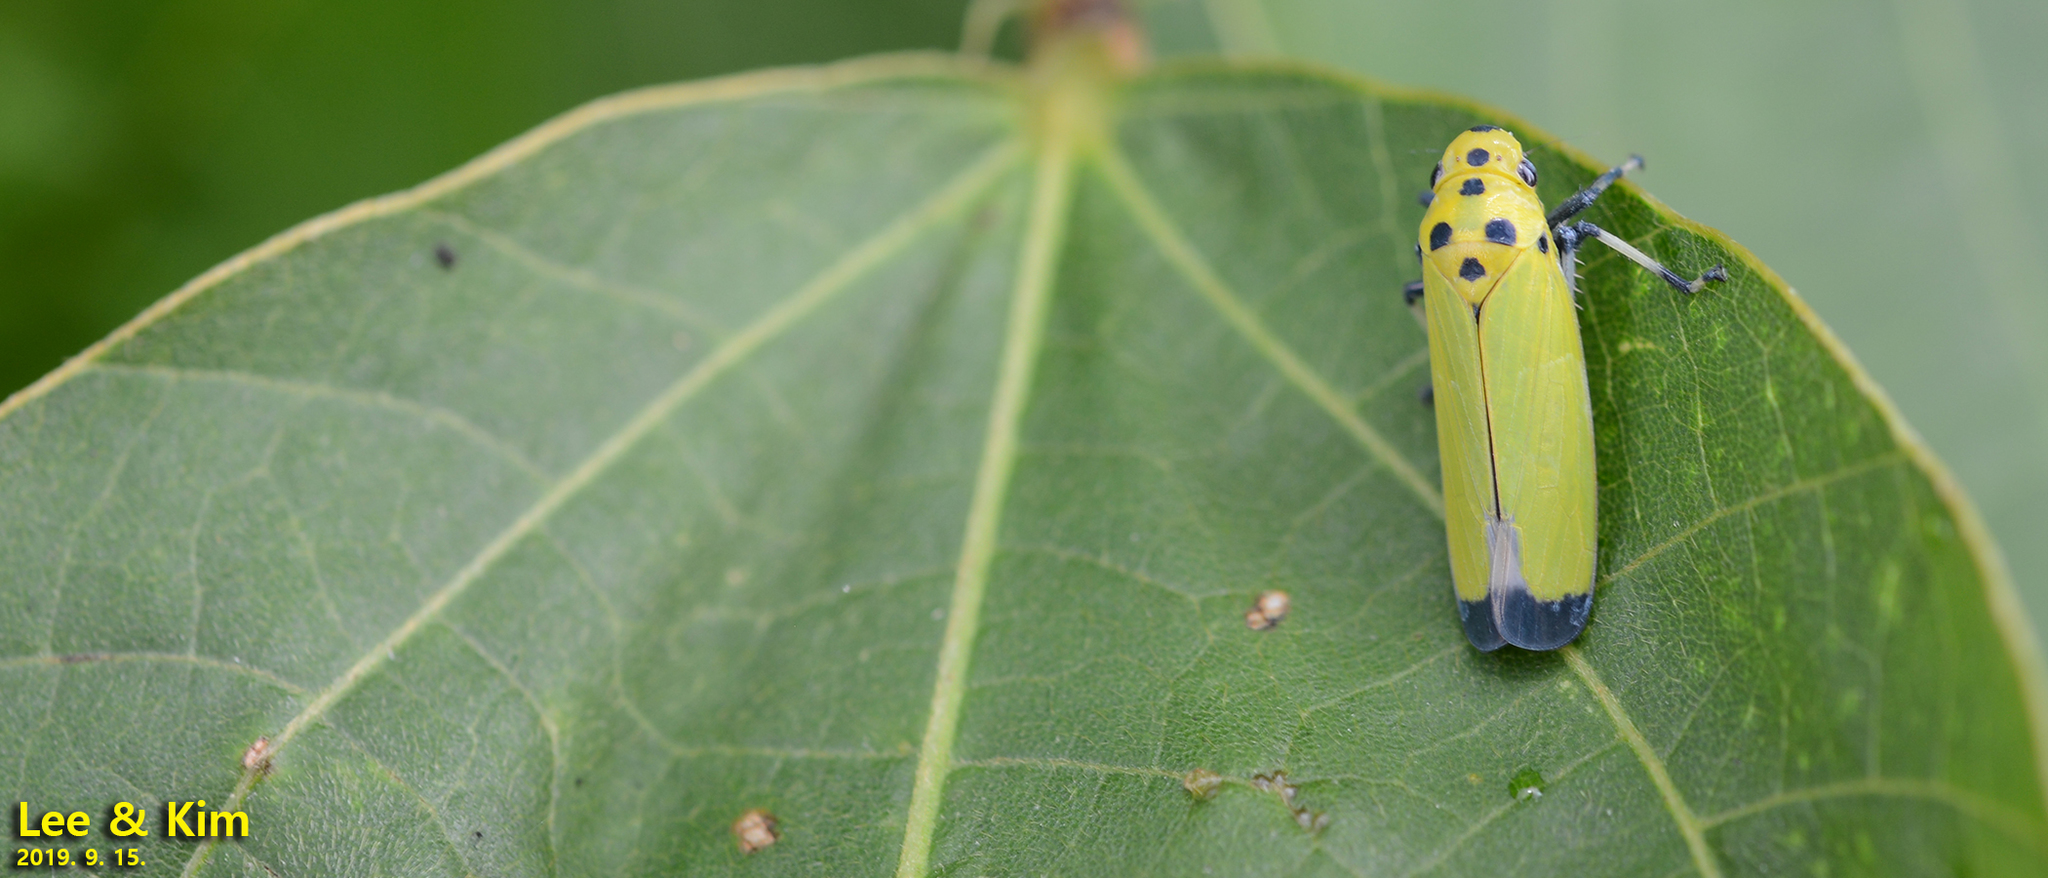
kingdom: Animalia
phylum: Arthropoda
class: Insecta
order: Hemiptera
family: Cicadellidae
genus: Bothrogonia
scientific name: Bothrogonia ferruginea
